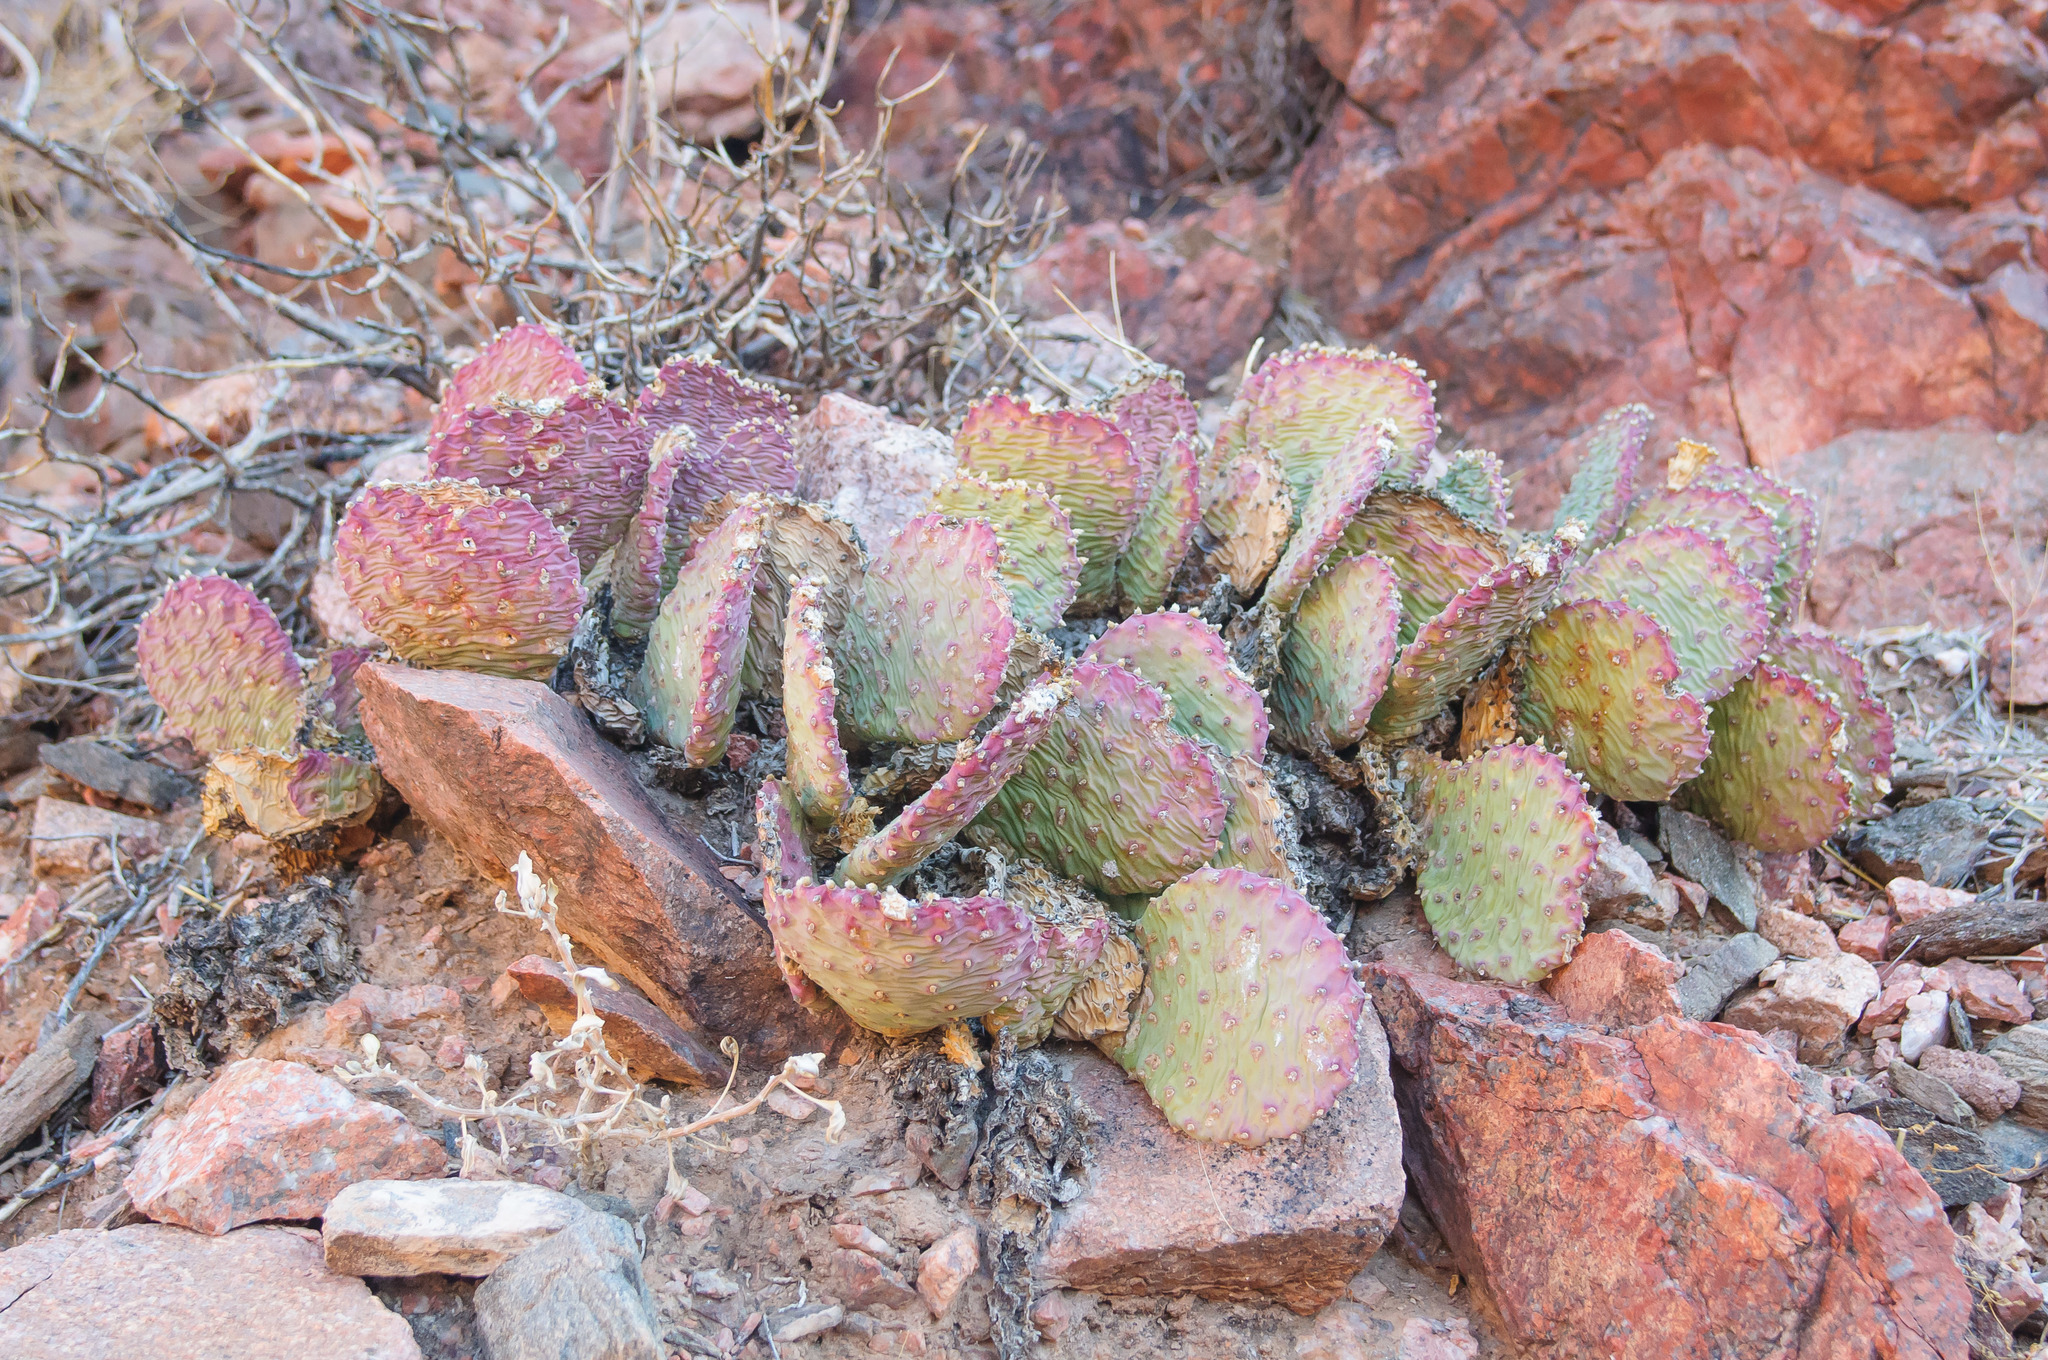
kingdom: Plantae
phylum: Tracheophyta
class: Magnoliopsida
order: Caryophyllales
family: Cactaceae
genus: Opuntia
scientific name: Opuntia basilaris
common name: Beavertail prickly-pear
